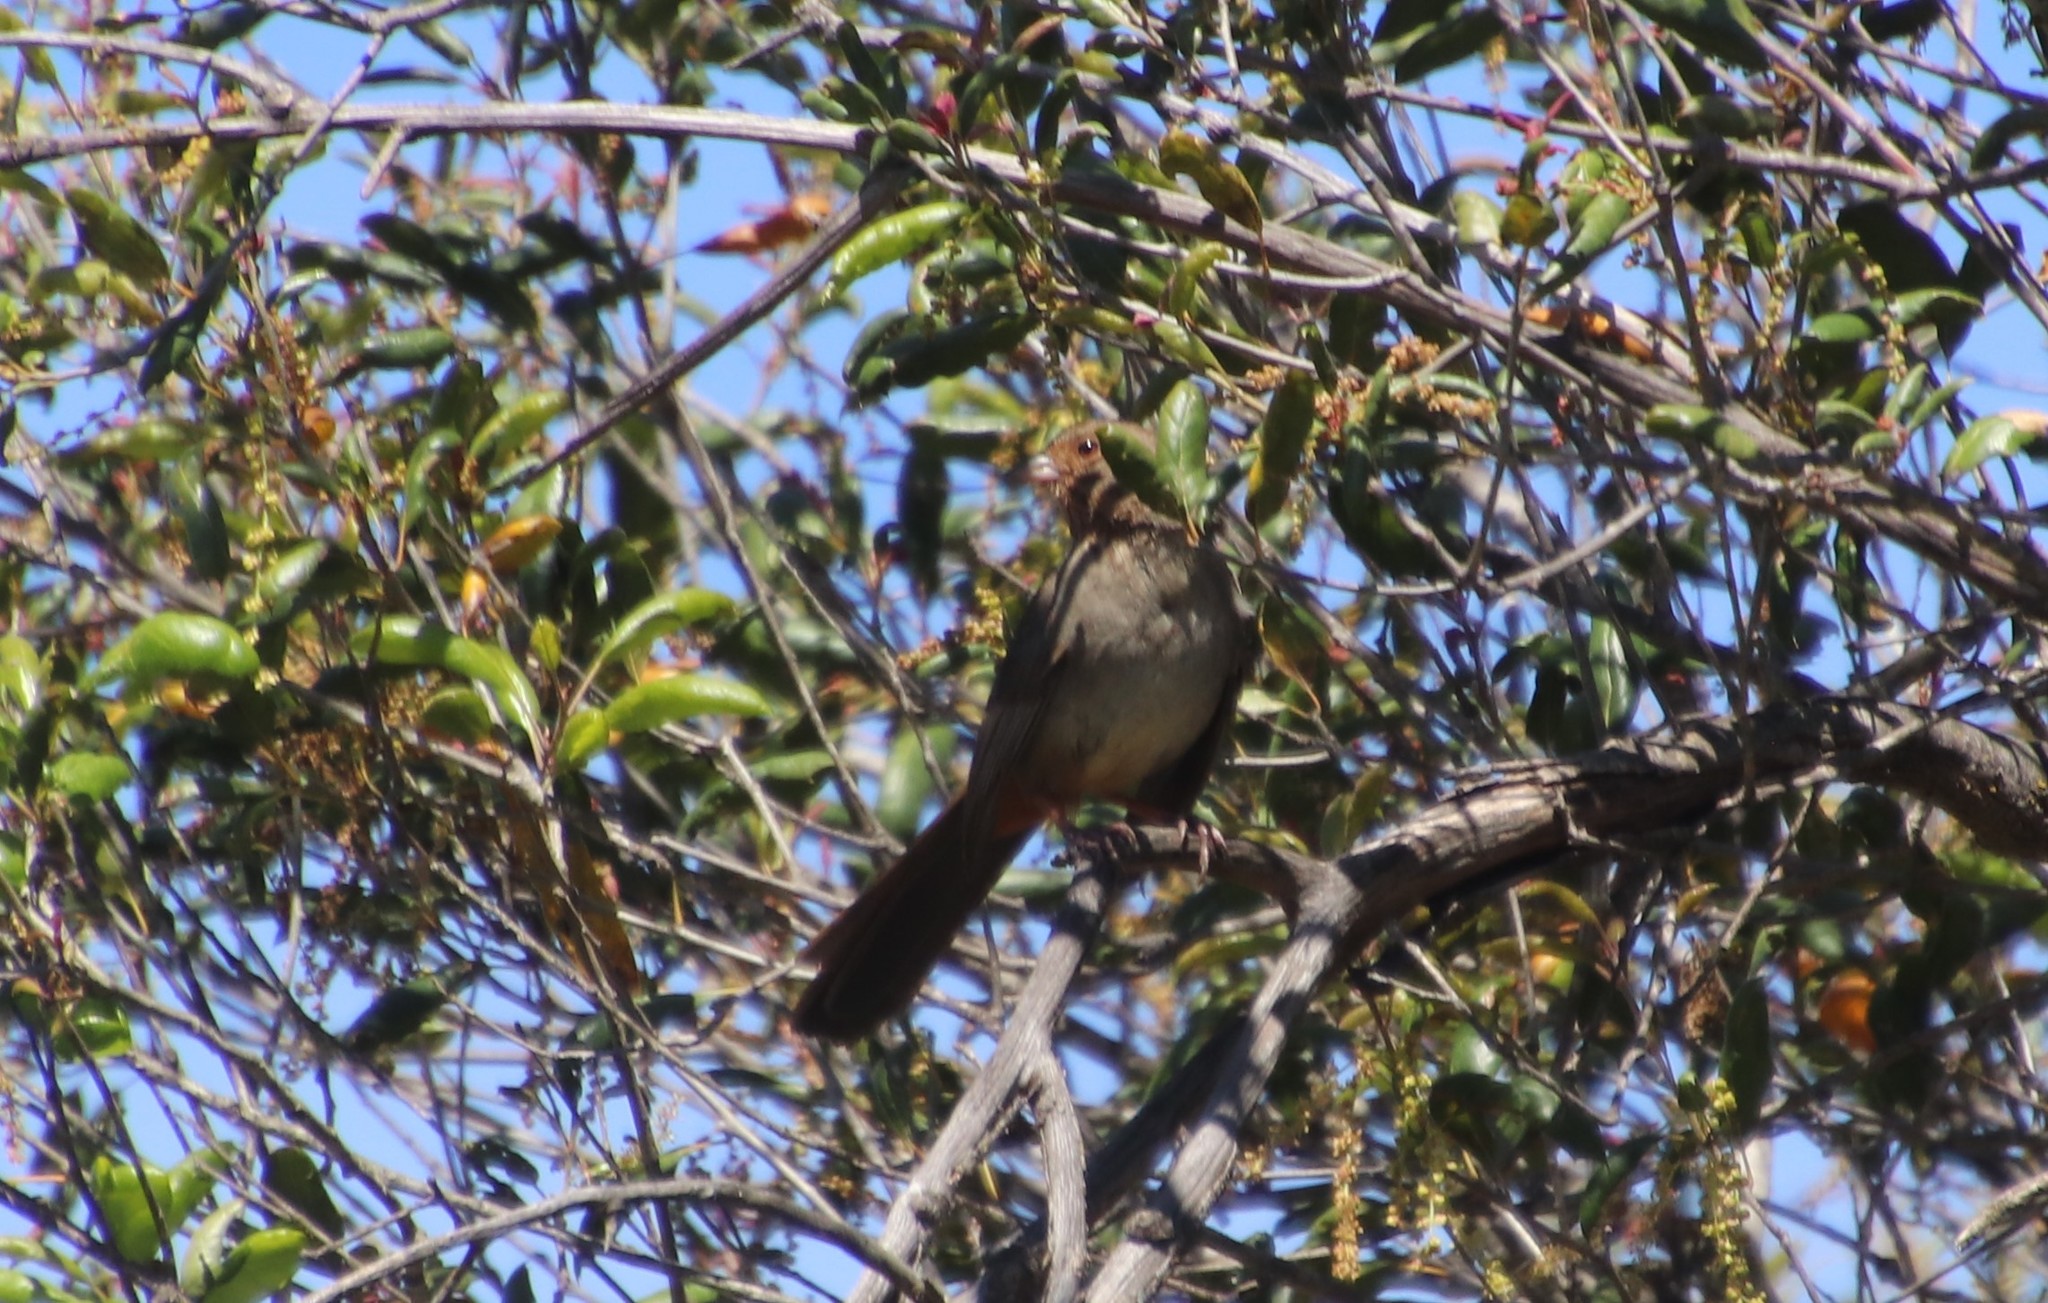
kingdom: Animalia
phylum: Chordata
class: Aves
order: Passeriformes
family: Passerellidae
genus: Melozone
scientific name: Melozone crissalis
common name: California towhee
